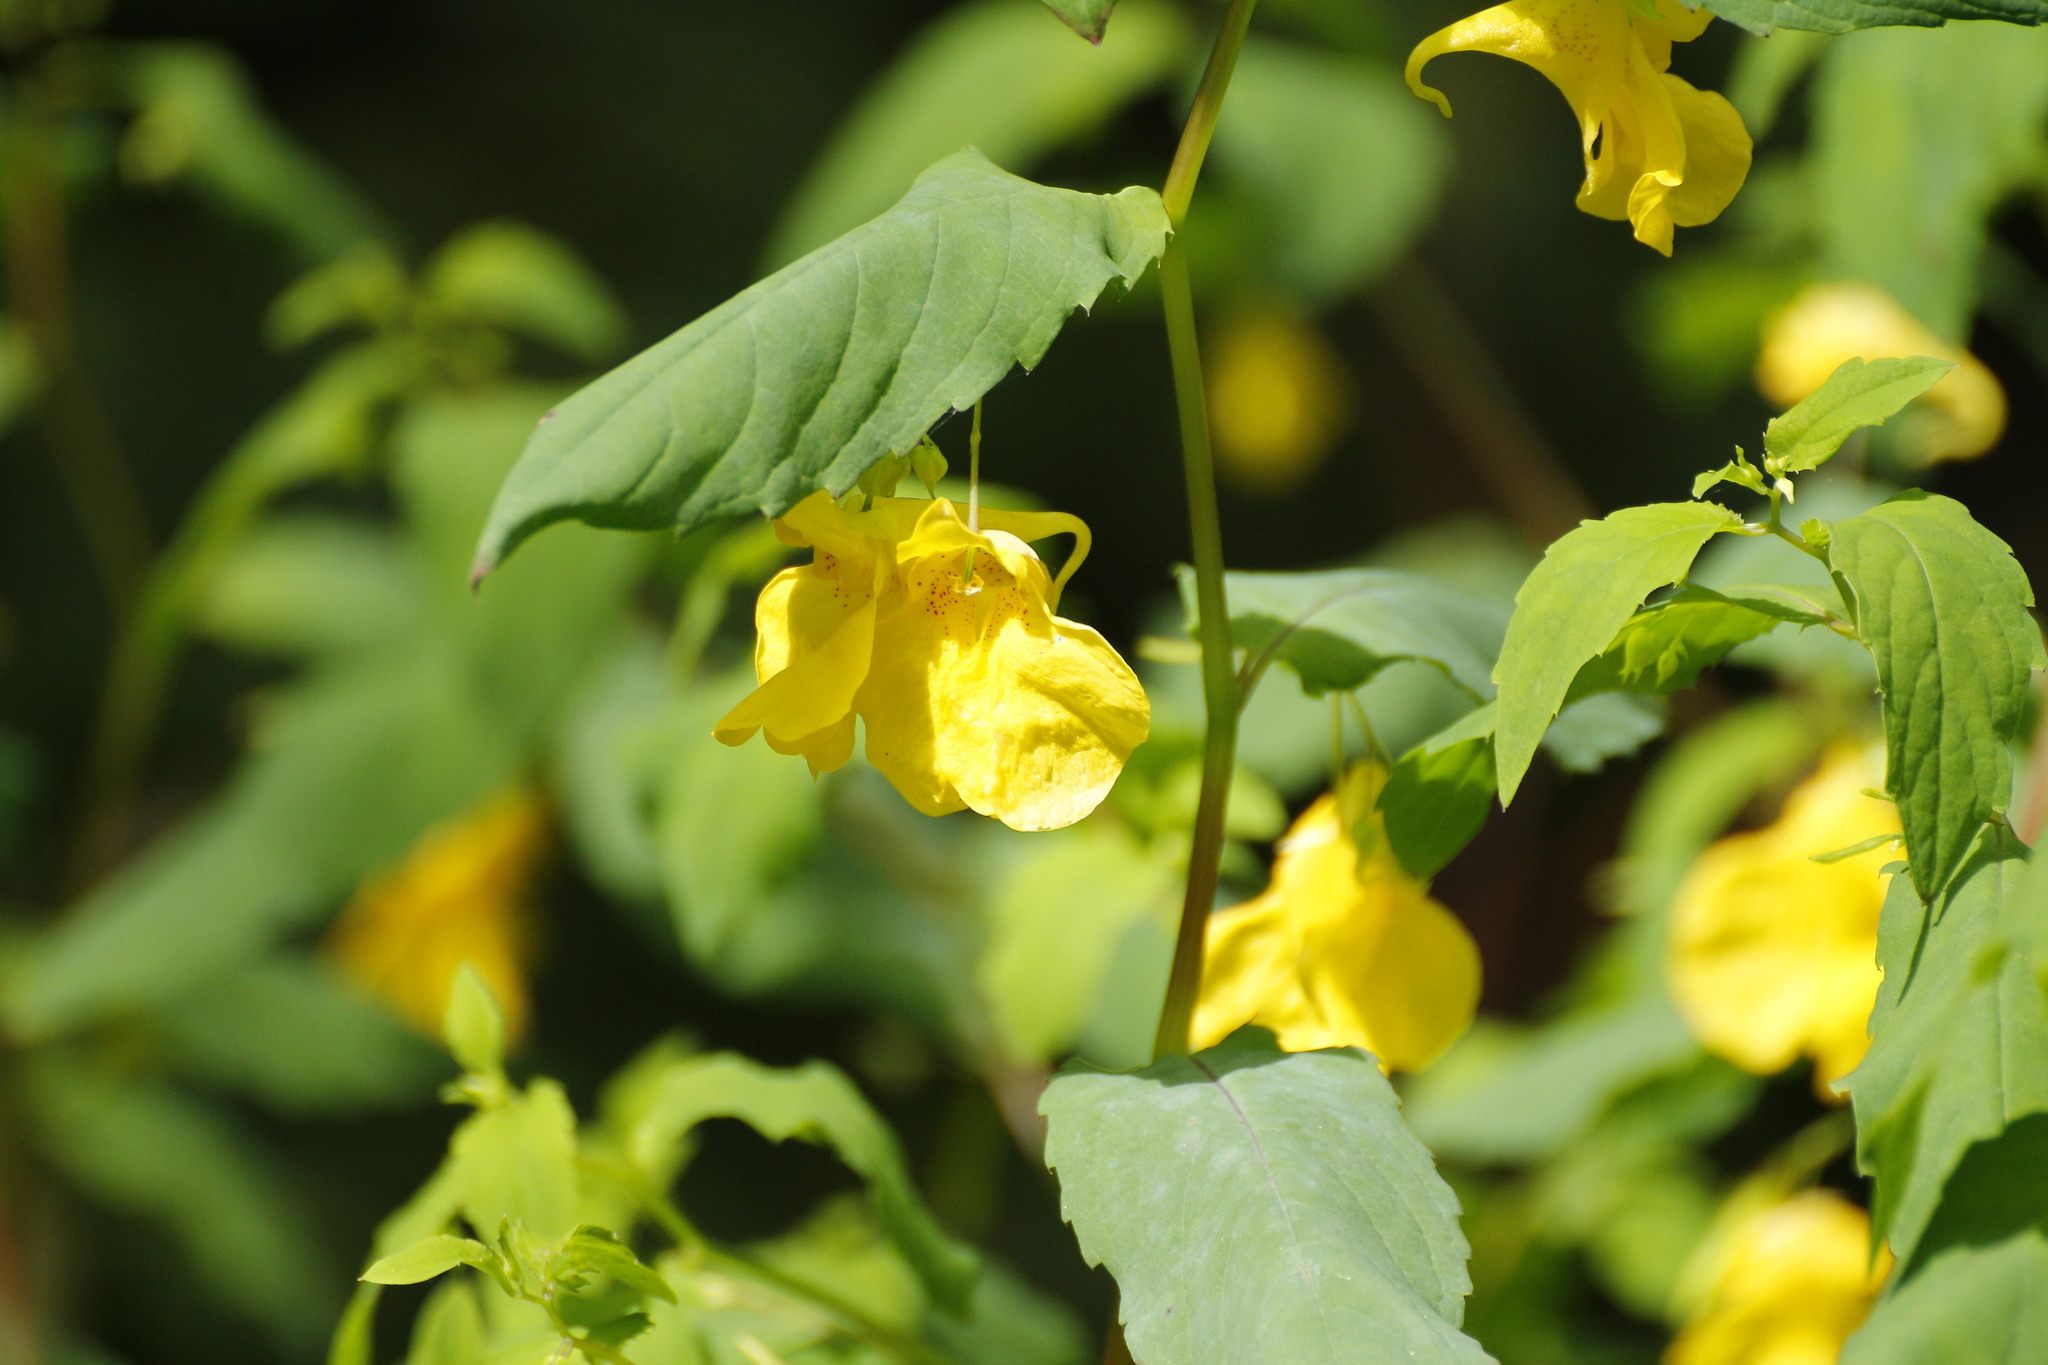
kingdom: Plantae
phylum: Tracheophyta
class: Magnoliopsida
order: Ericales
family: Balsaminaceae
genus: Impatiens
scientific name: Impatiens noli-tangere
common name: Touch-me-not balsam
